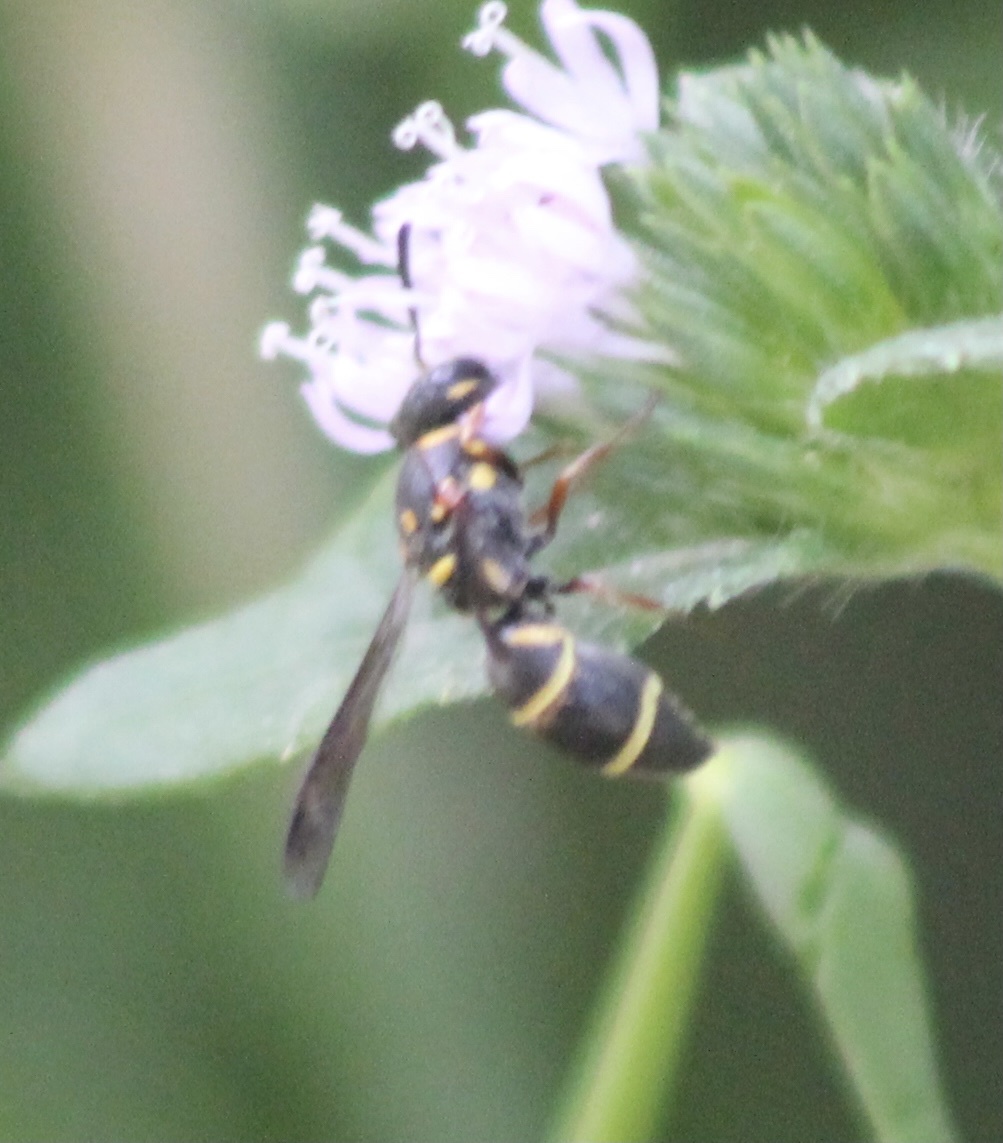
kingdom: Animalia
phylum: Arthropoda
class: Insecta
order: Hymenoptera
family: Eumenidae
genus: Parancistrocerus
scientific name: Parancistrocerus fulvipes
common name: Potter wasp
